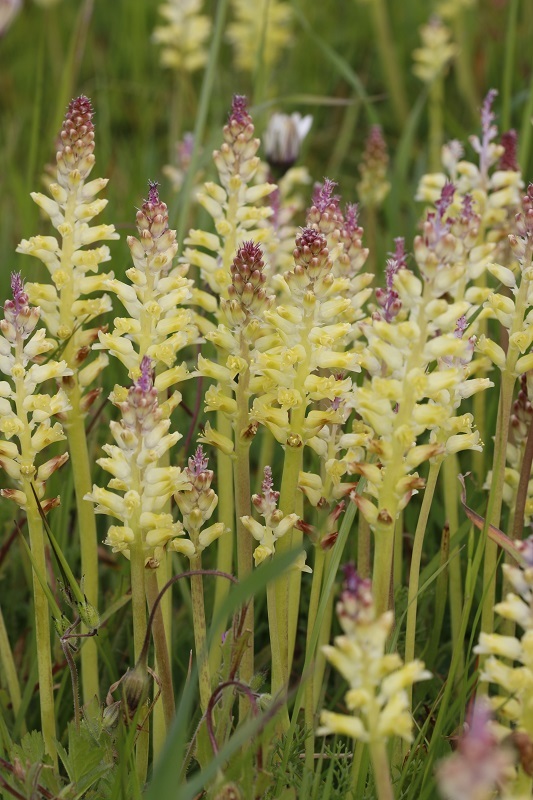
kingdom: Plantae
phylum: Tracheophyta
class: Liliopsida
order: Asparagales
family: Asparagaceae
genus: Lachenalia
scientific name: Lachenalia pallida
